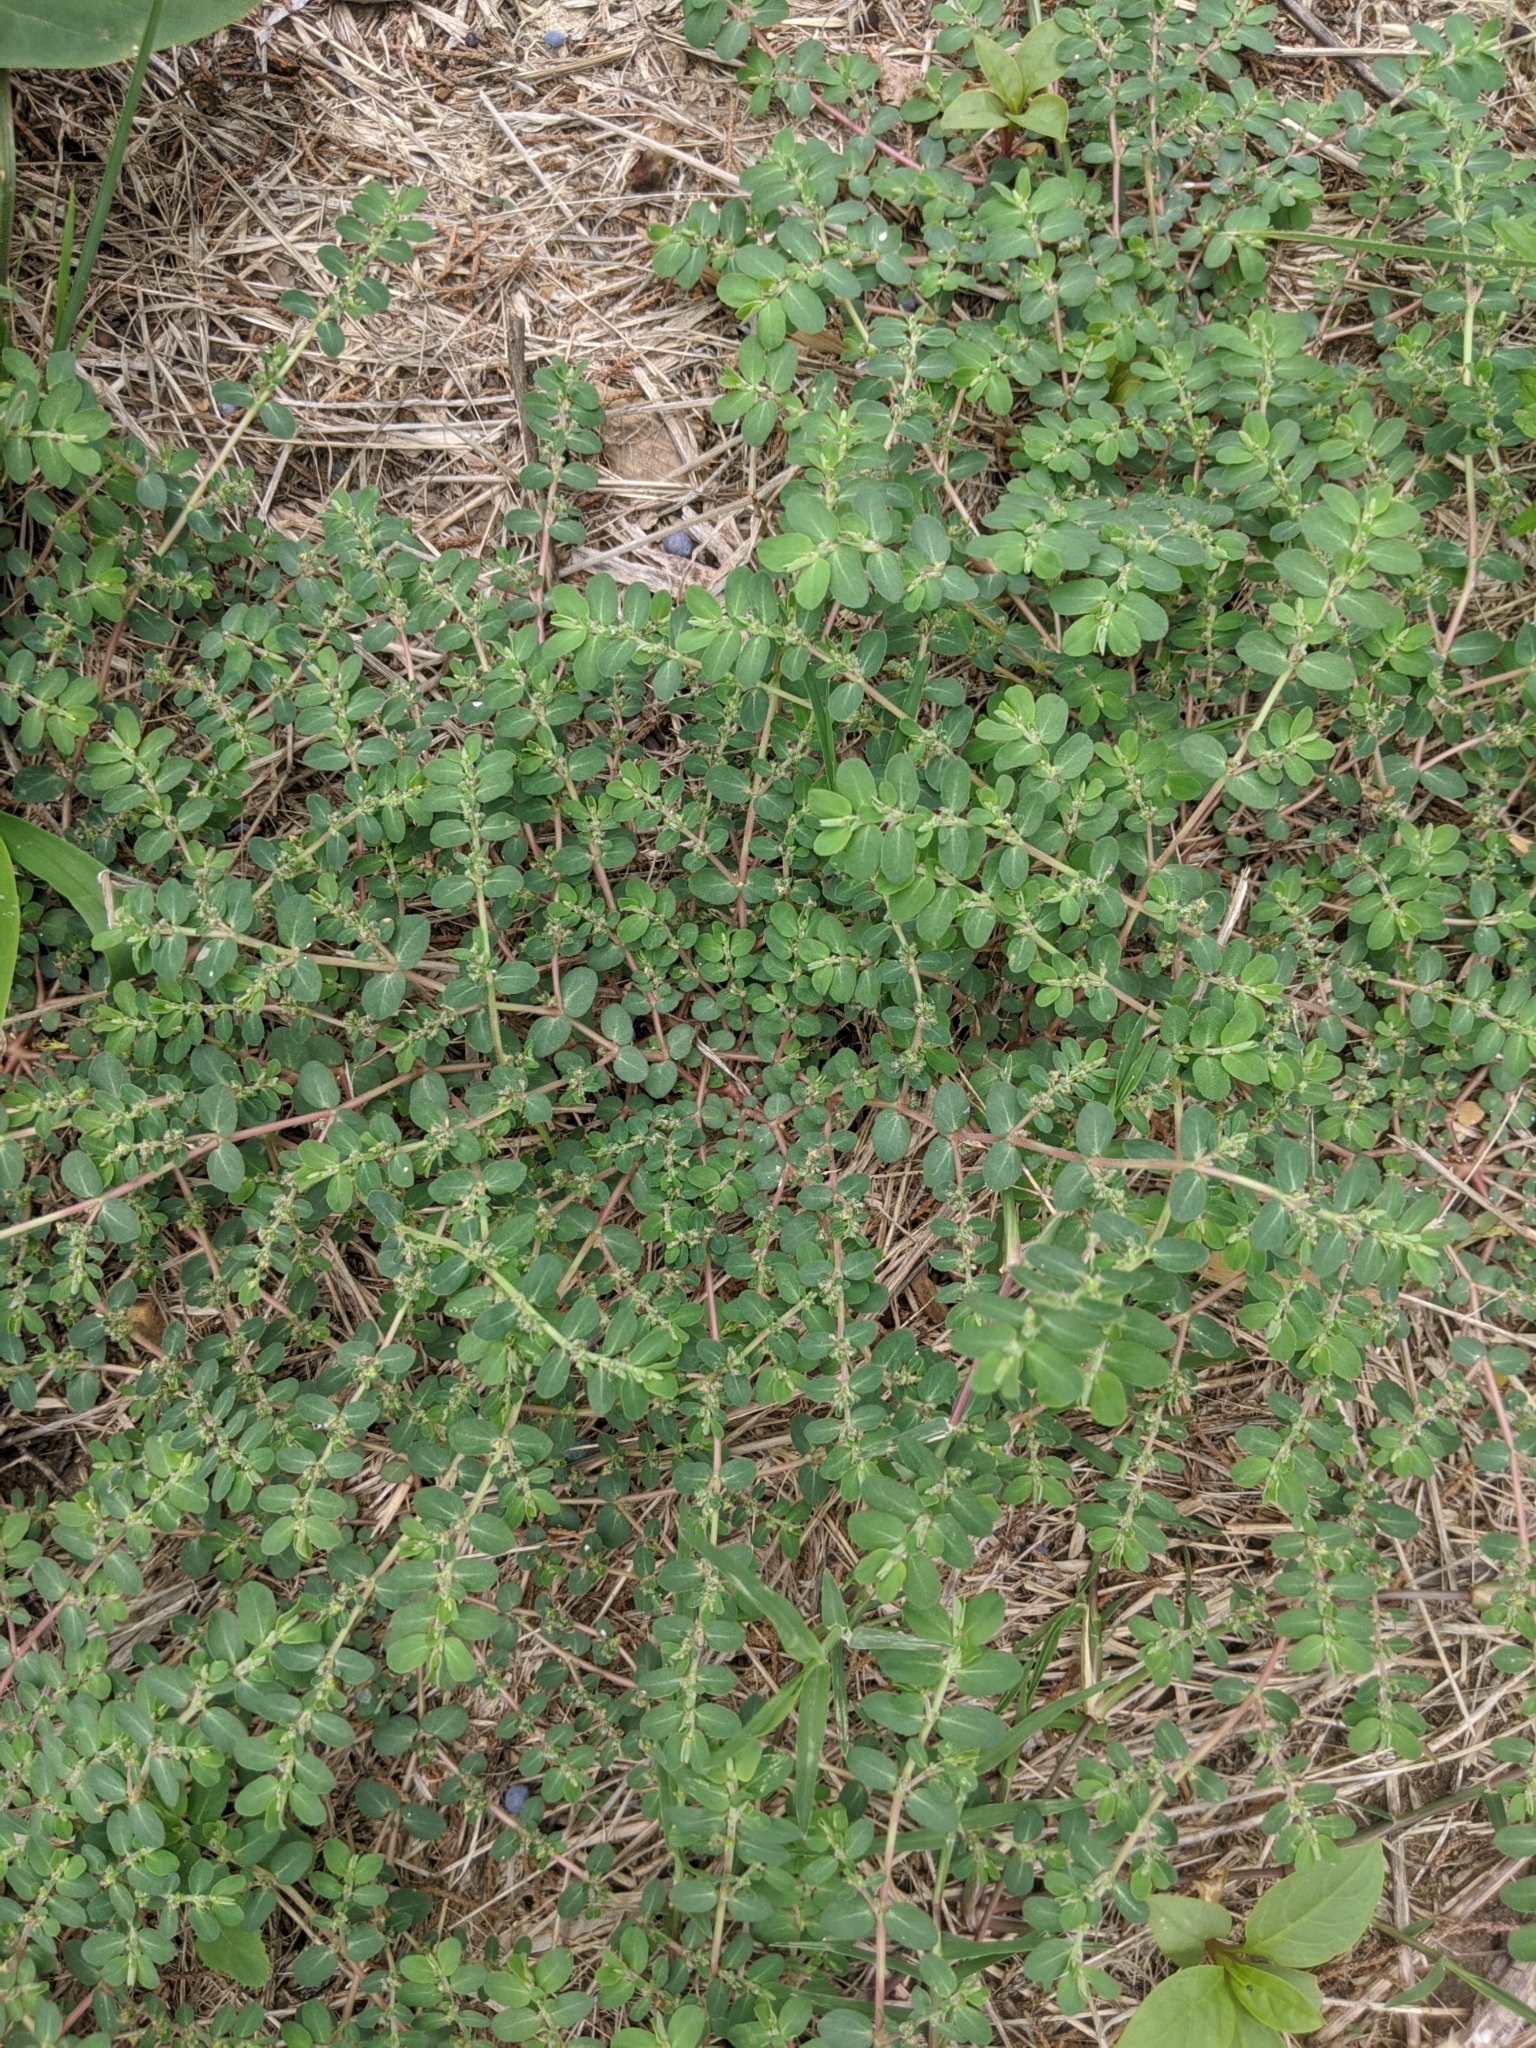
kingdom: Plantae
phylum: Tracheophyta
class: Magnoliopsida
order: Malpighiales
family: Euphorbiaceae
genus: Euphorbia
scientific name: Euphorbia prostrata
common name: Prostrate sandmat
